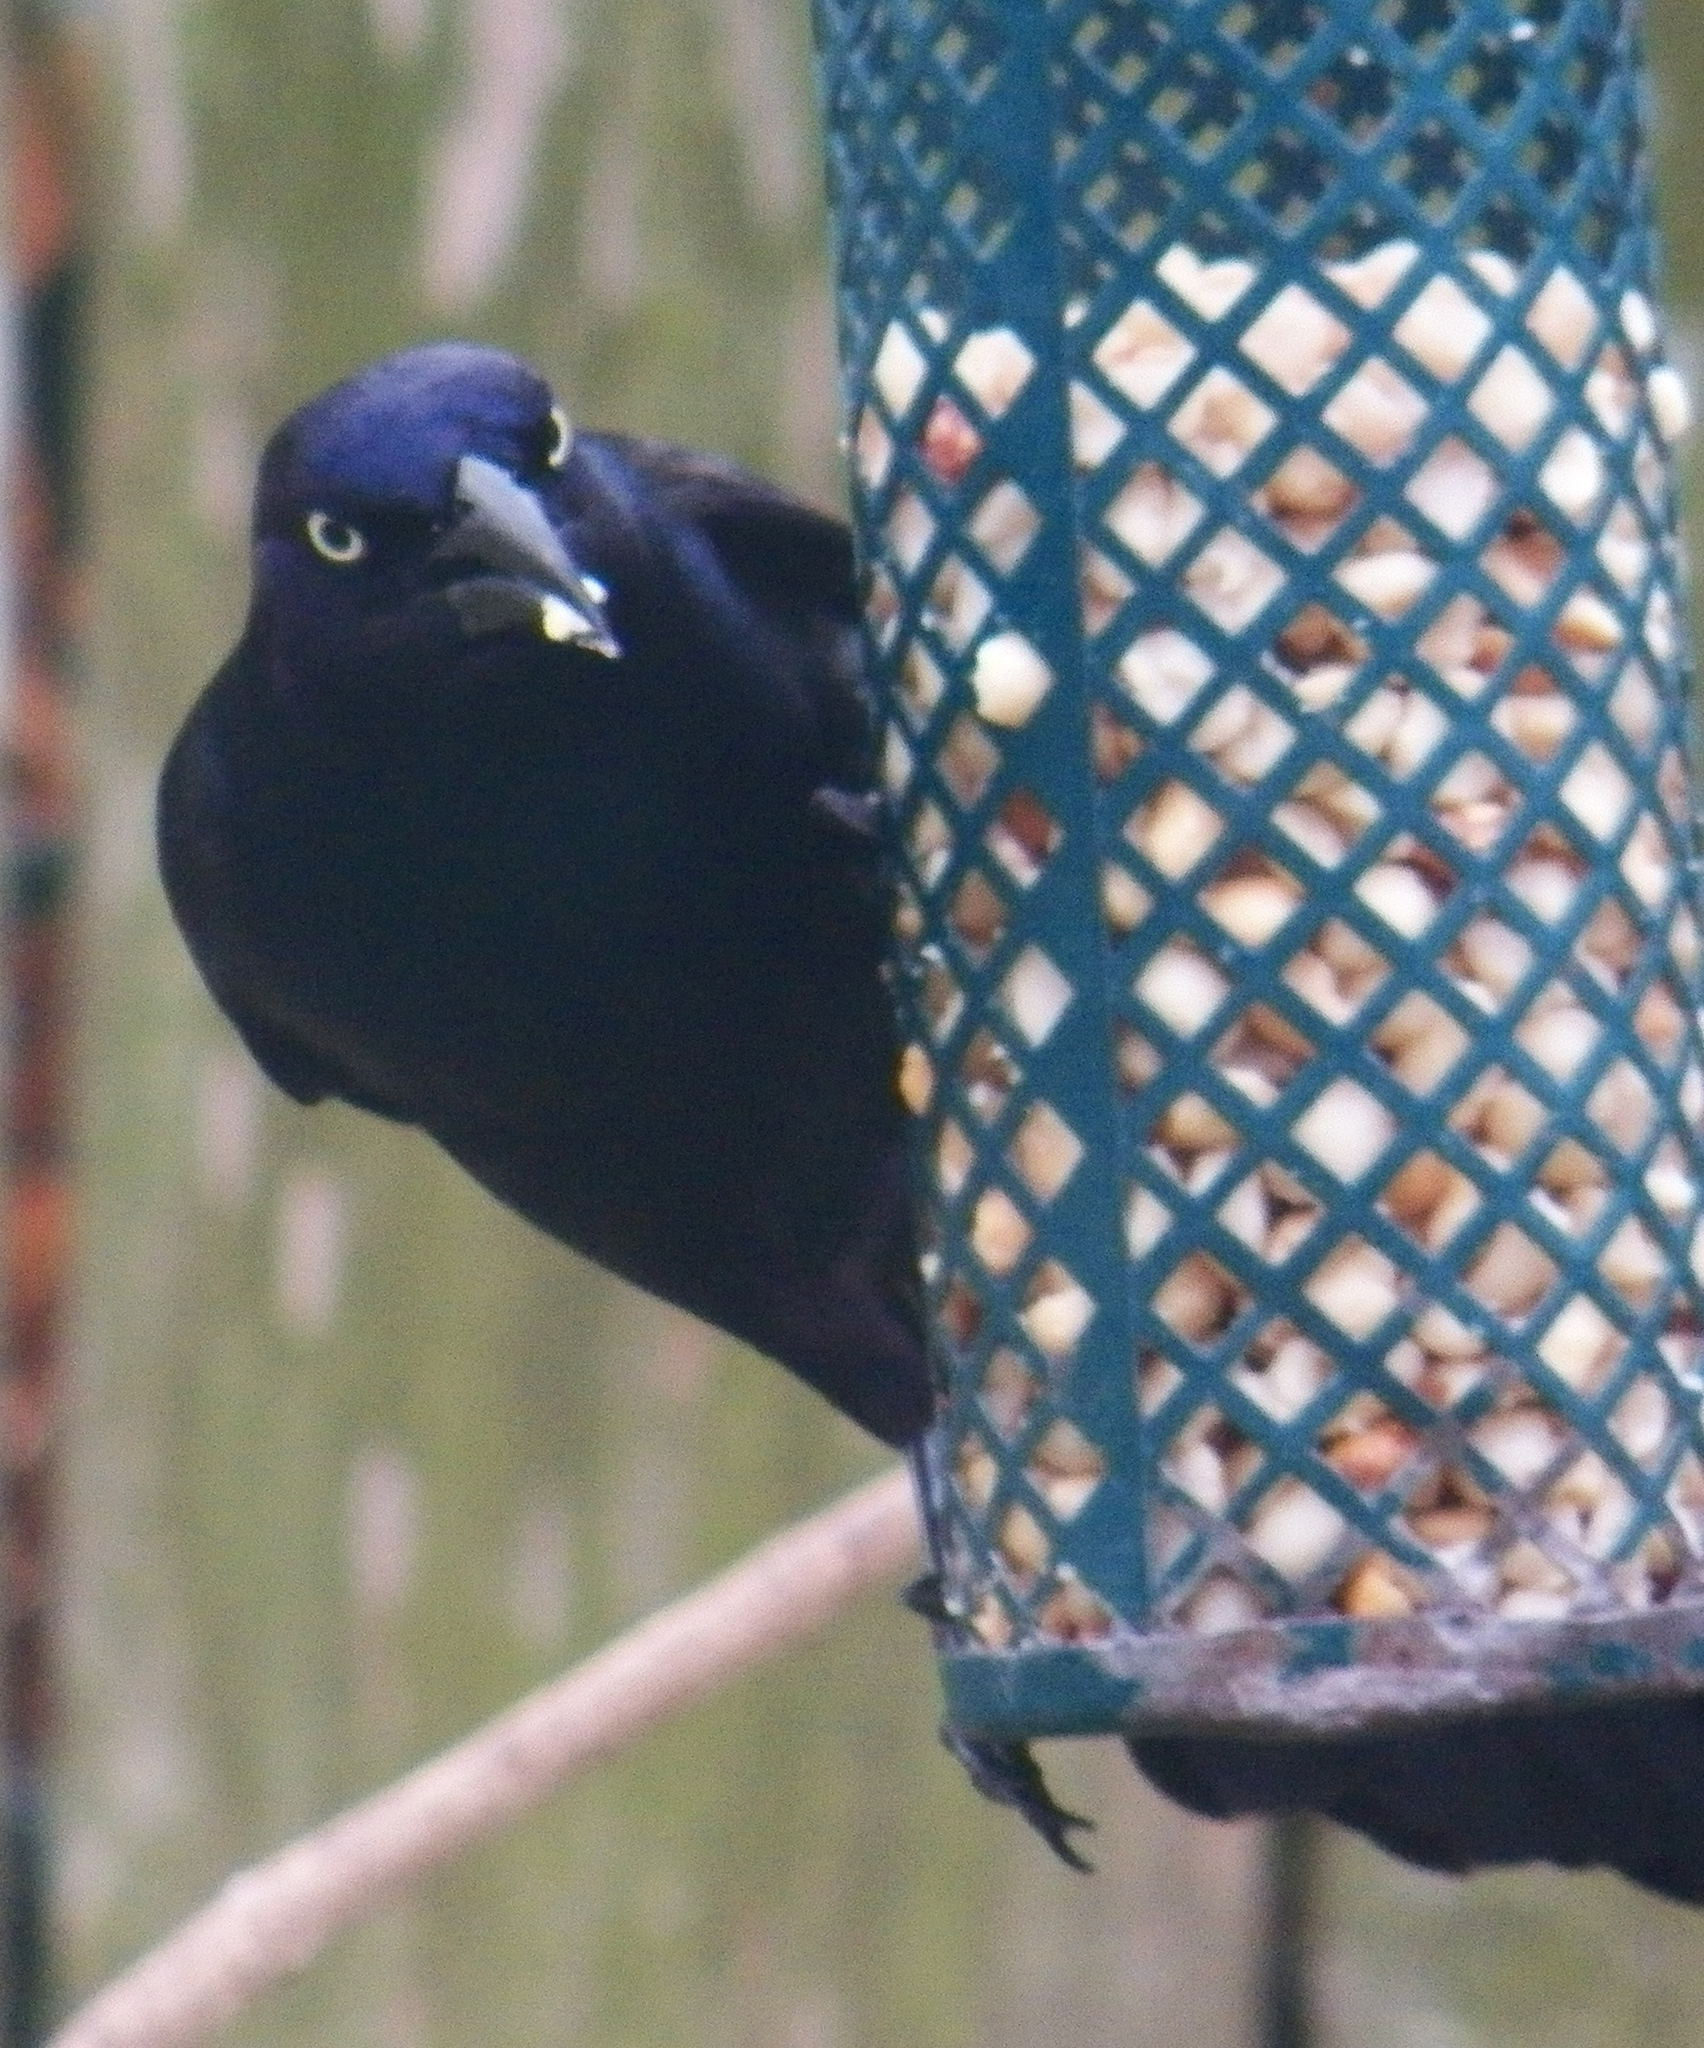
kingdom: Animalia
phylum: Chordata
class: Aves
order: Passeriformes
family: Icteridae
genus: Quiscalus
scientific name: Quiscalus quiscula
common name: Common grackle
